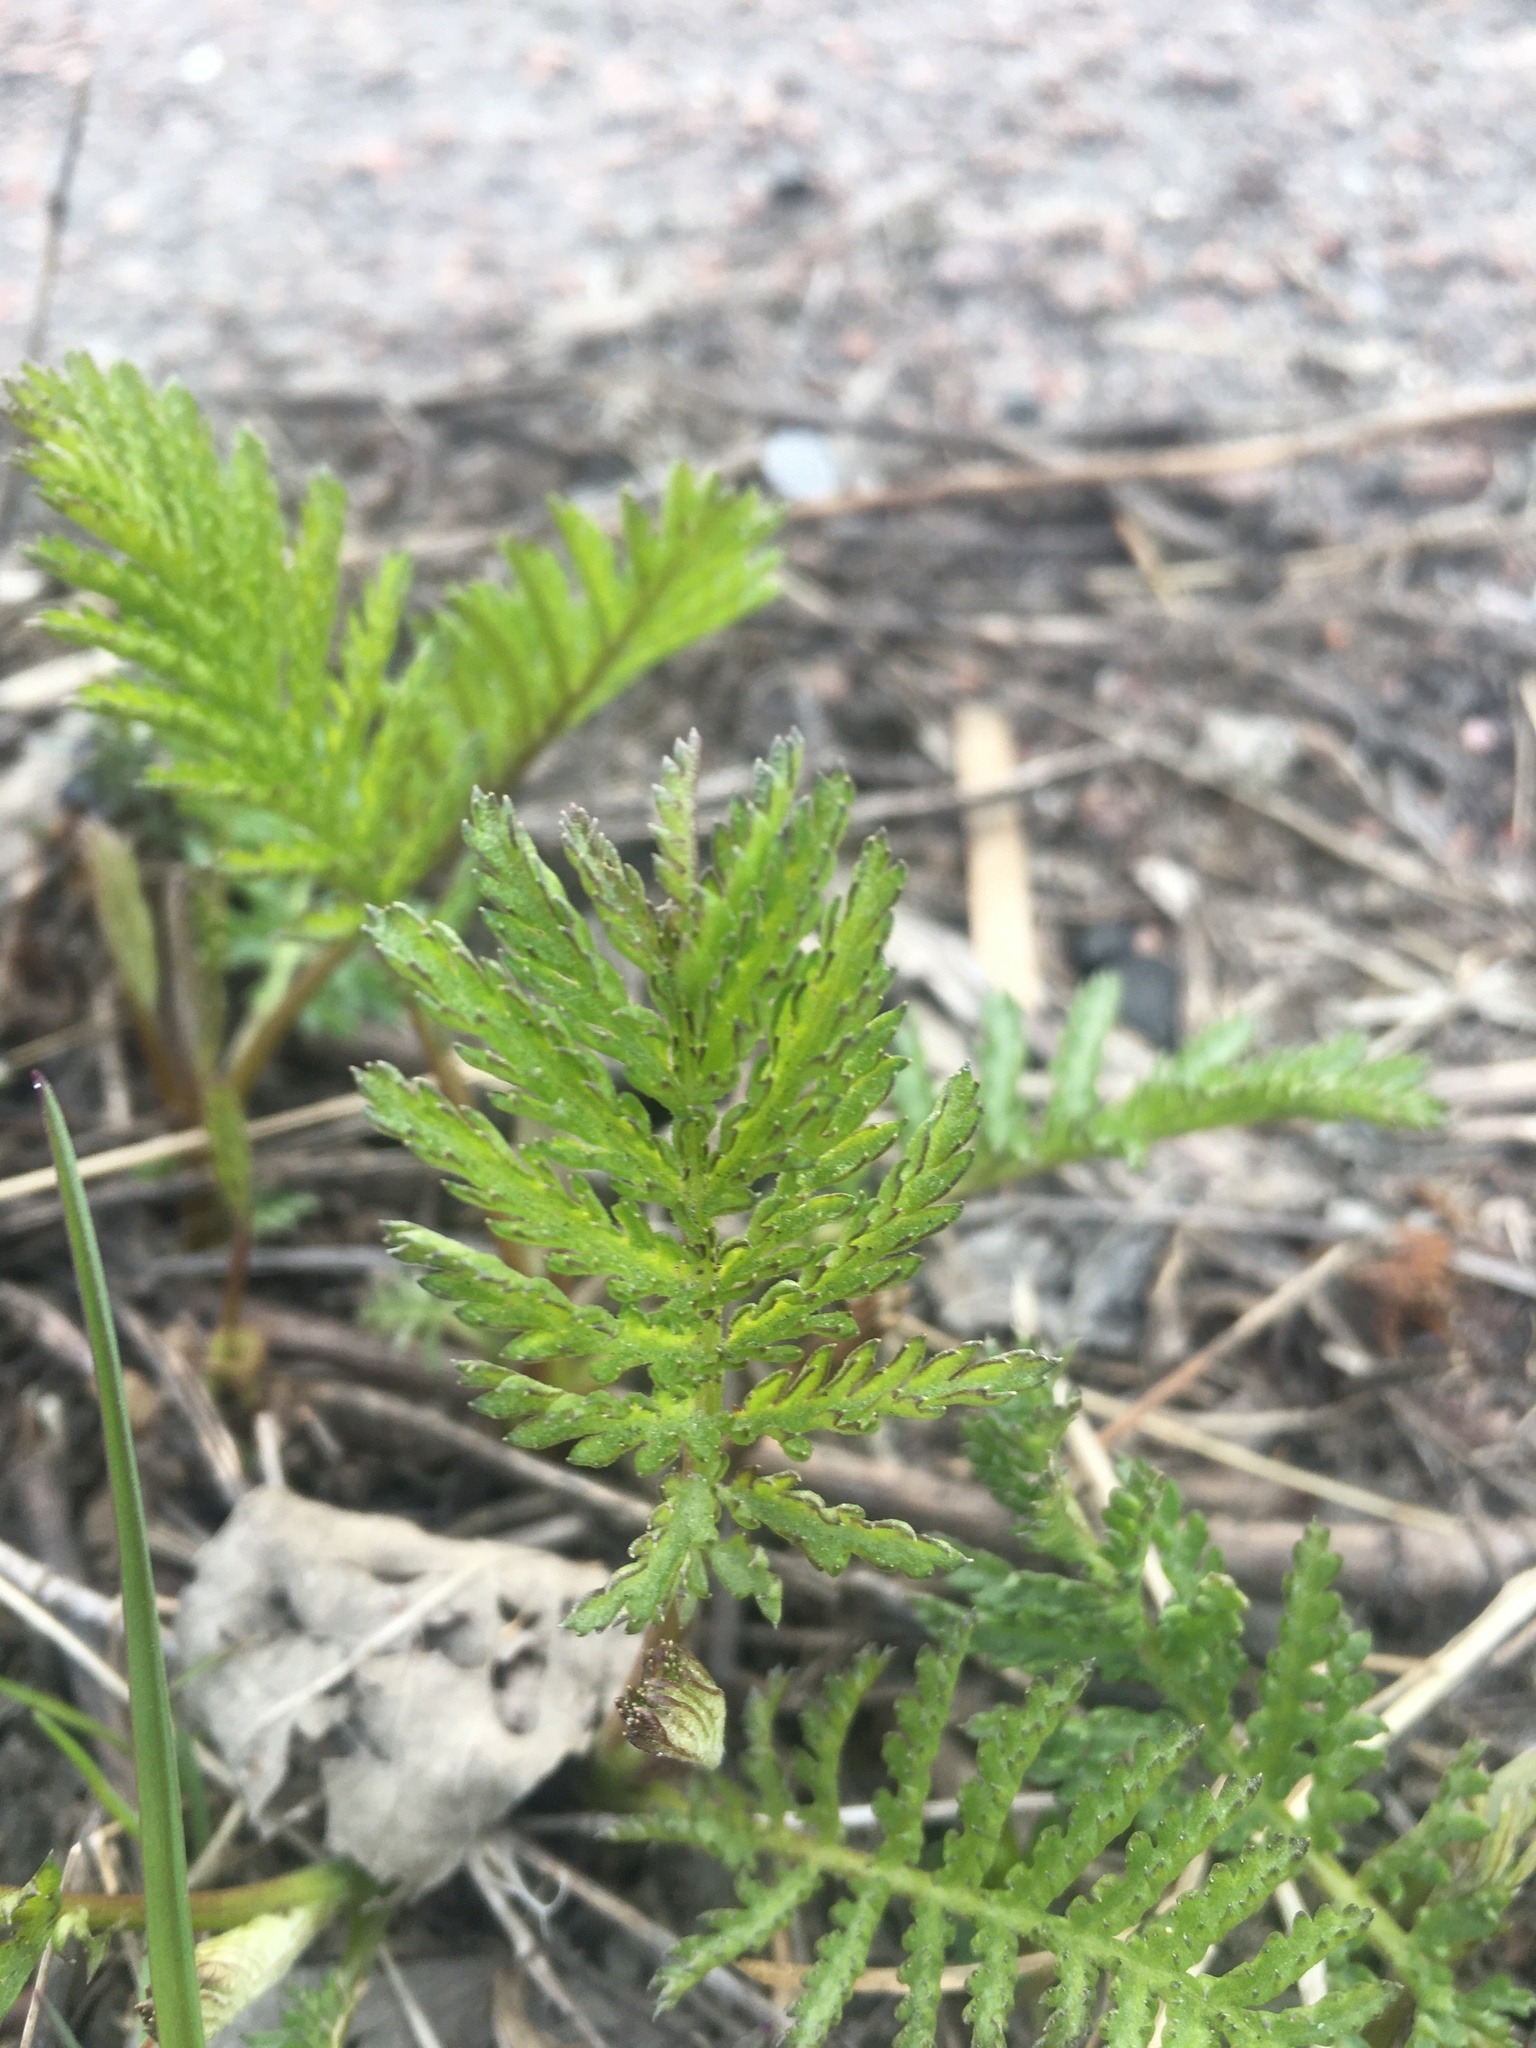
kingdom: Plantae
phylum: Tracheophyta
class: Magnoliopsida
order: Asterales
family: Asteraceae
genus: Tanacetum
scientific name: Tanacetum vulgare
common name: Common tansy
